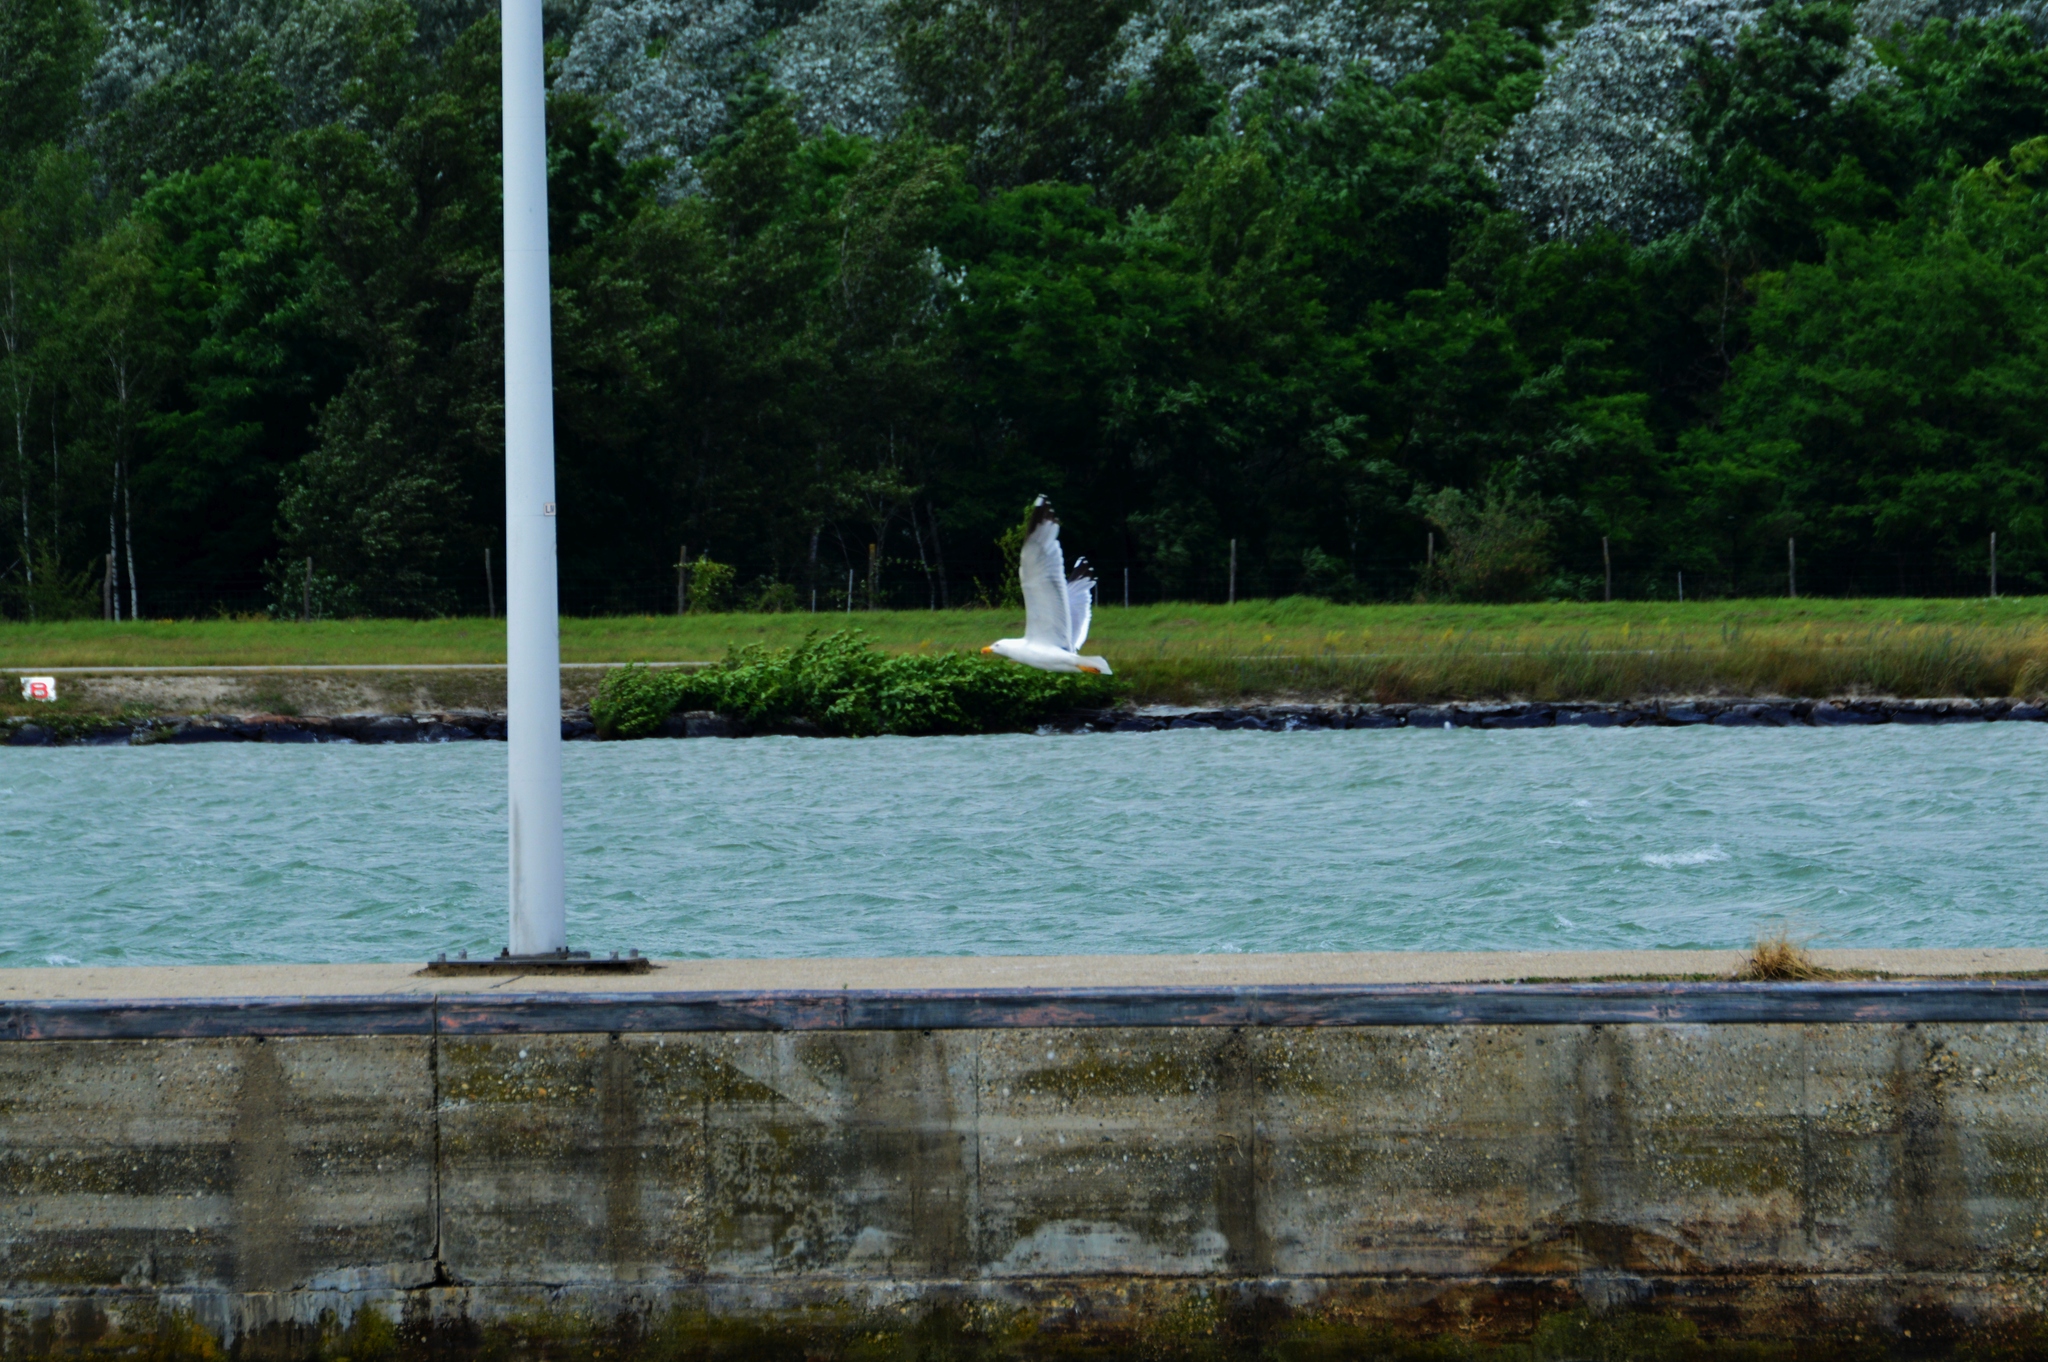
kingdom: Animalia
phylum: Chordata
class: Aves
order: Charadriiformes
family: Laridae
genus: Larus
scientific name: Larus michahellis
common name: Yellow-legged gull
